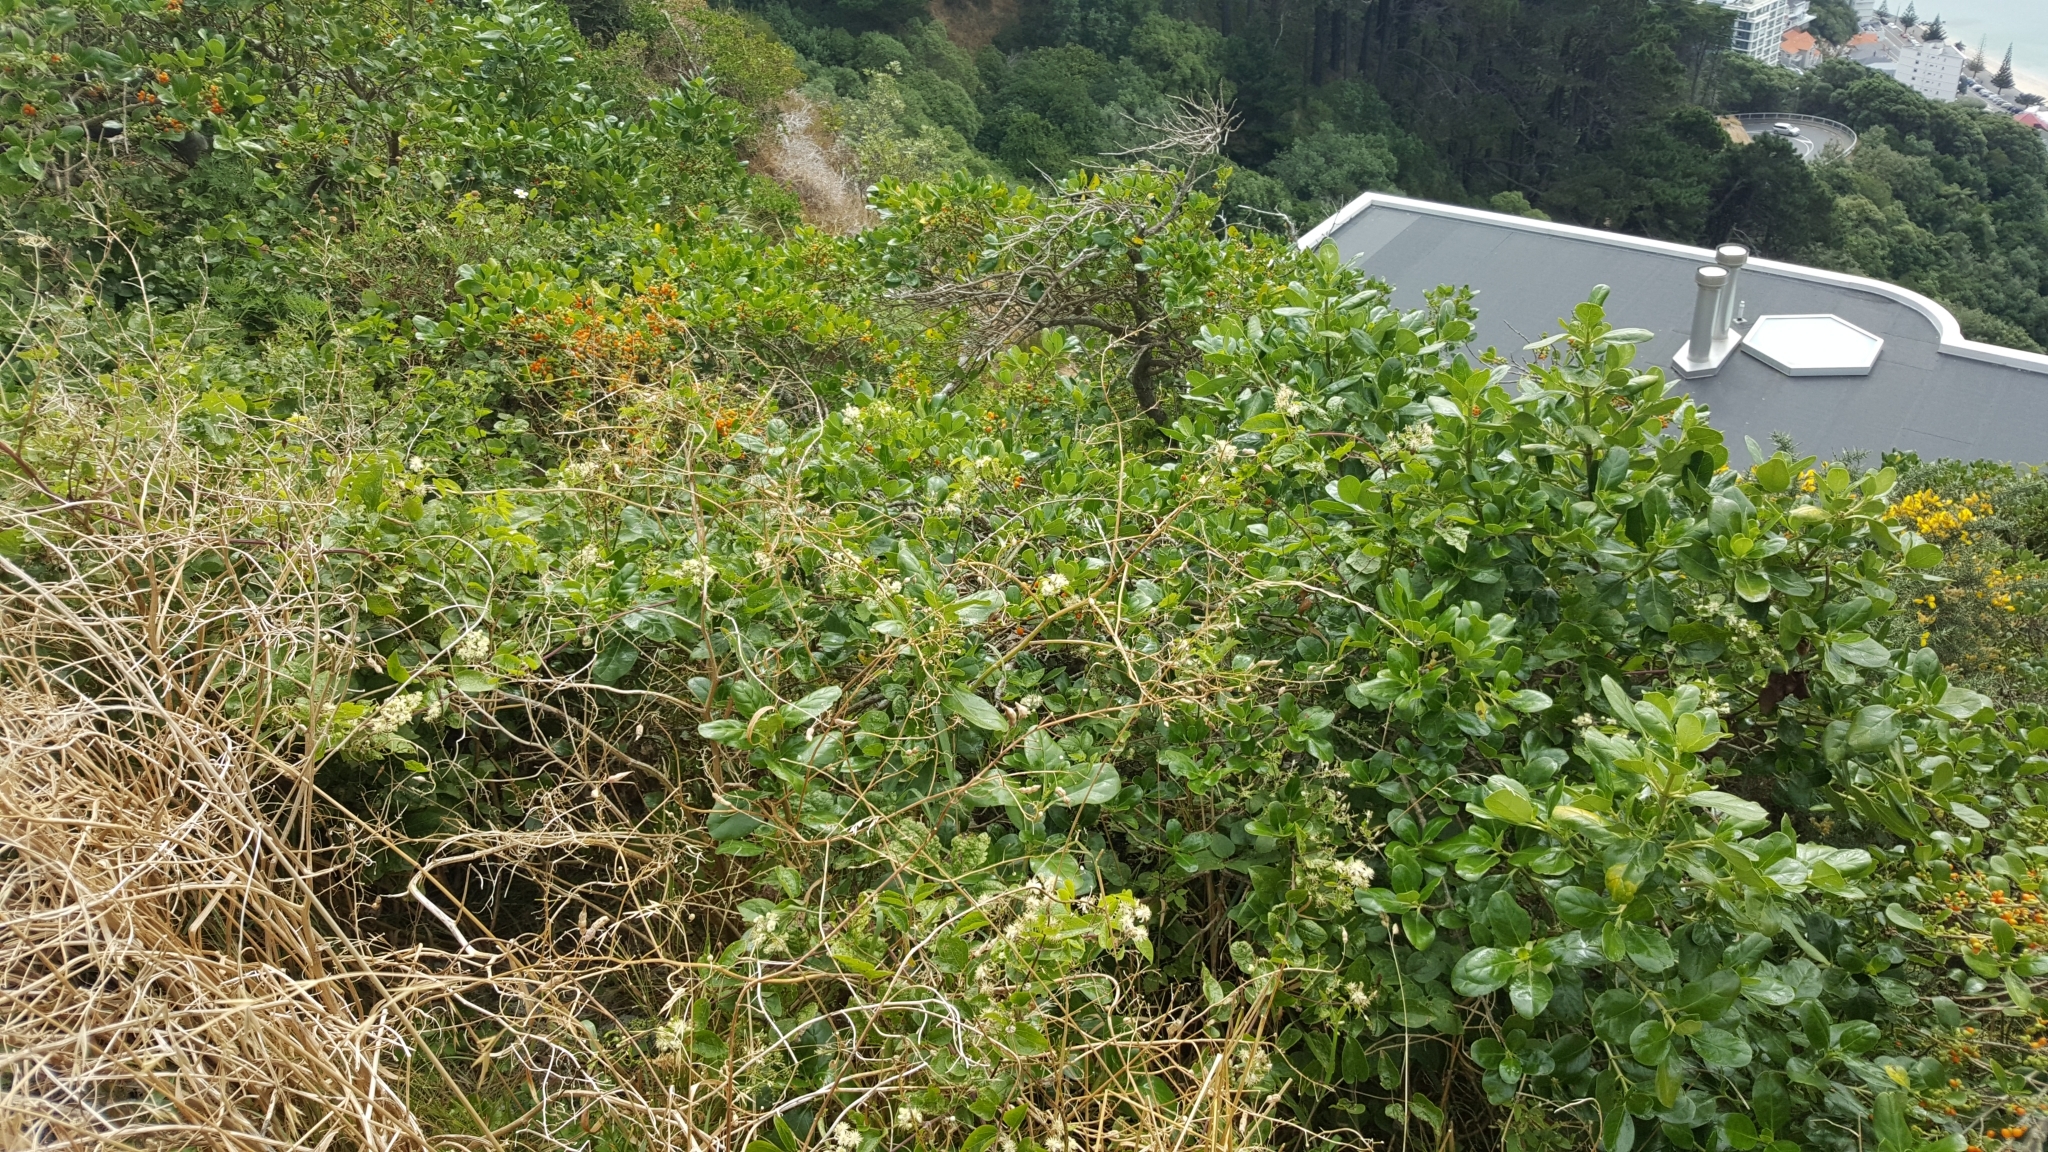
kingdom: Plantae
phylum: Tracheophyta
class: Magnoliopsida
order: Ranunculales
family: Ranunculaceae
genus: Clematis
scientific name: Clematis vitalba
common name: Evergreen clematis
